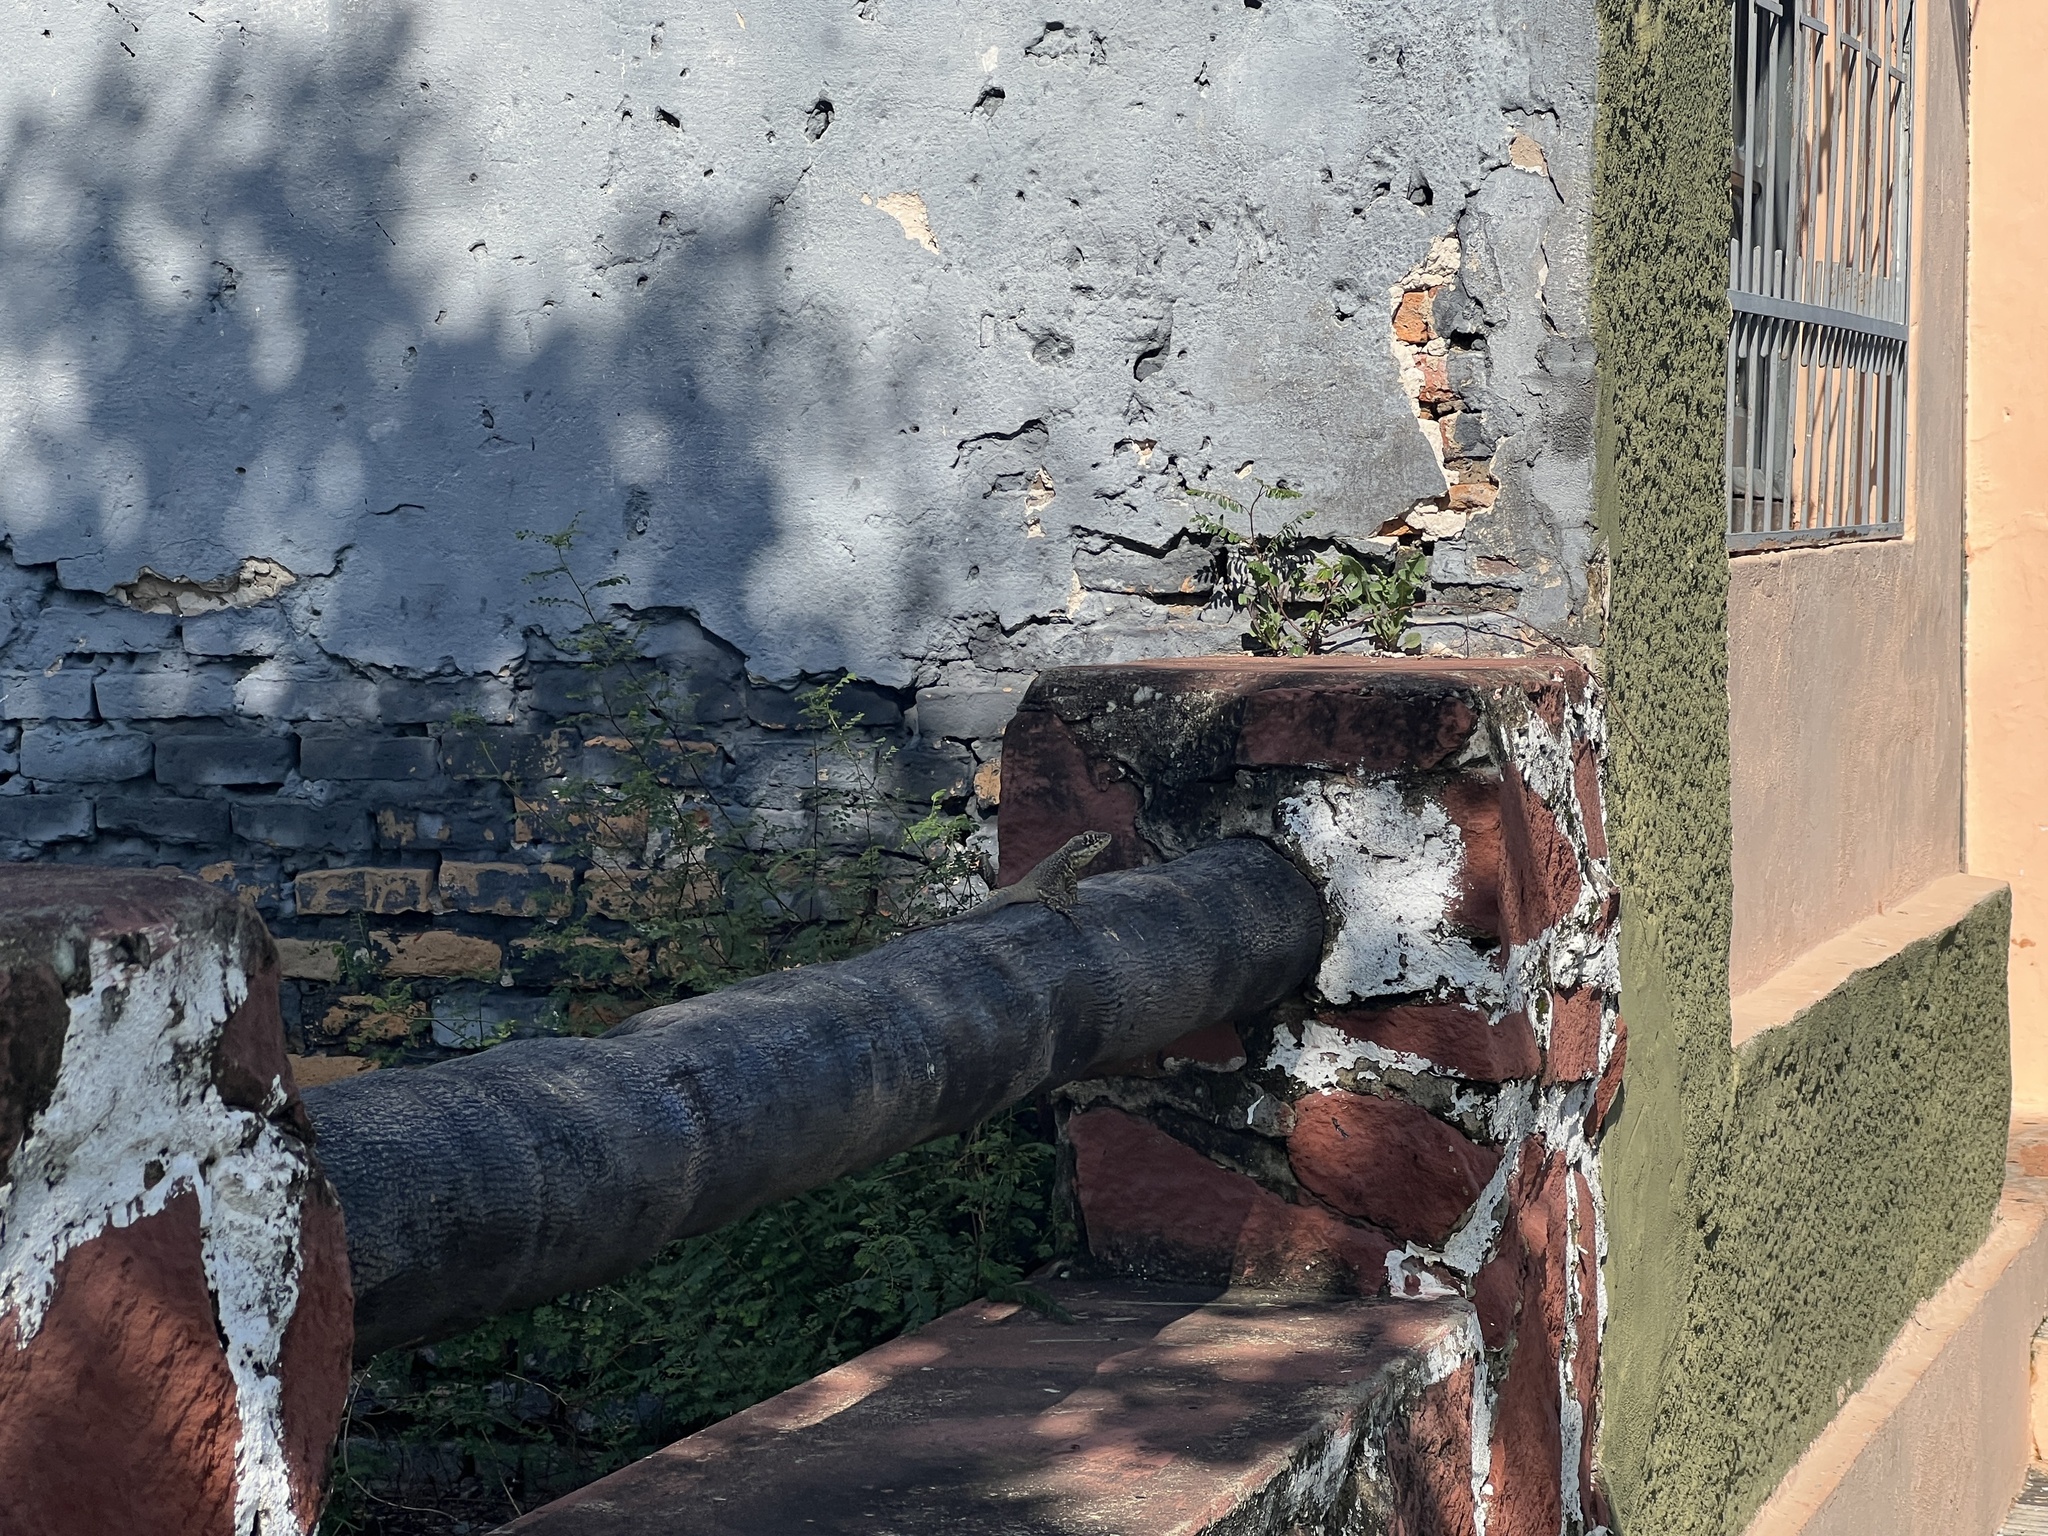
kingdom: Animalia
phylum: Chordata
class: Squamata
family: Tropiduridae
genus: Tropidurus
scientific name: Tropidurus catalanensis
